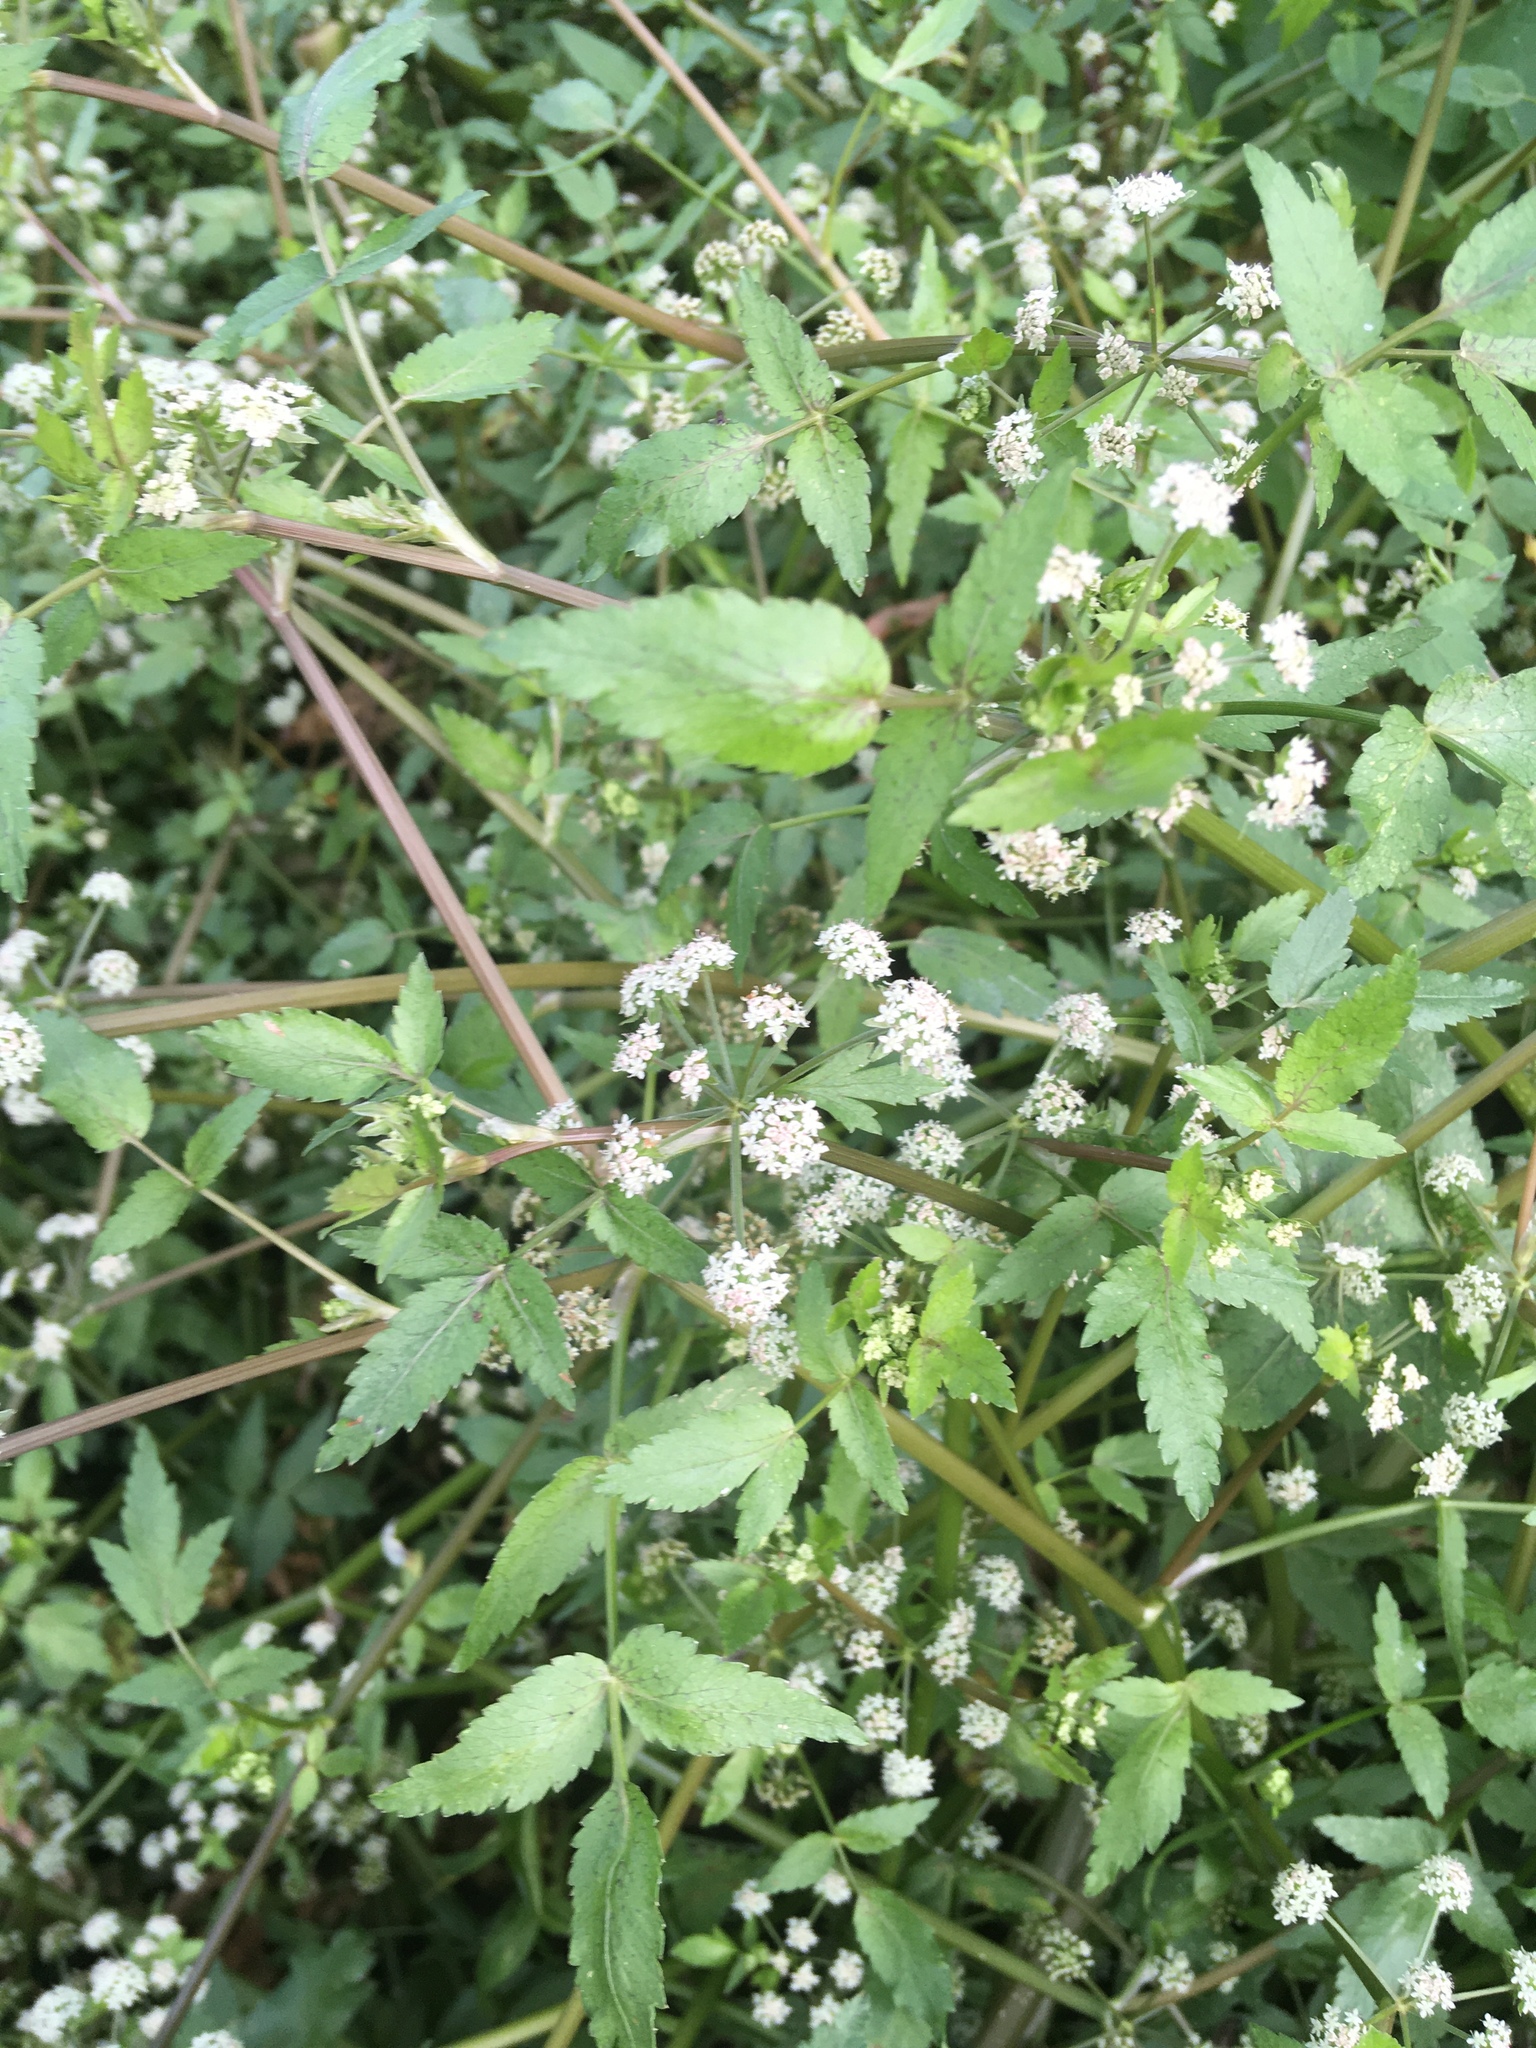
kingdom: Plantae
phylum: Tracheophyta
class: Magnoliopsida
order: Apiales
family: Apiaceae
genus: Helosciadium
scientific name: Helosciadium nodiflorum
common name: Fool's-watercress
